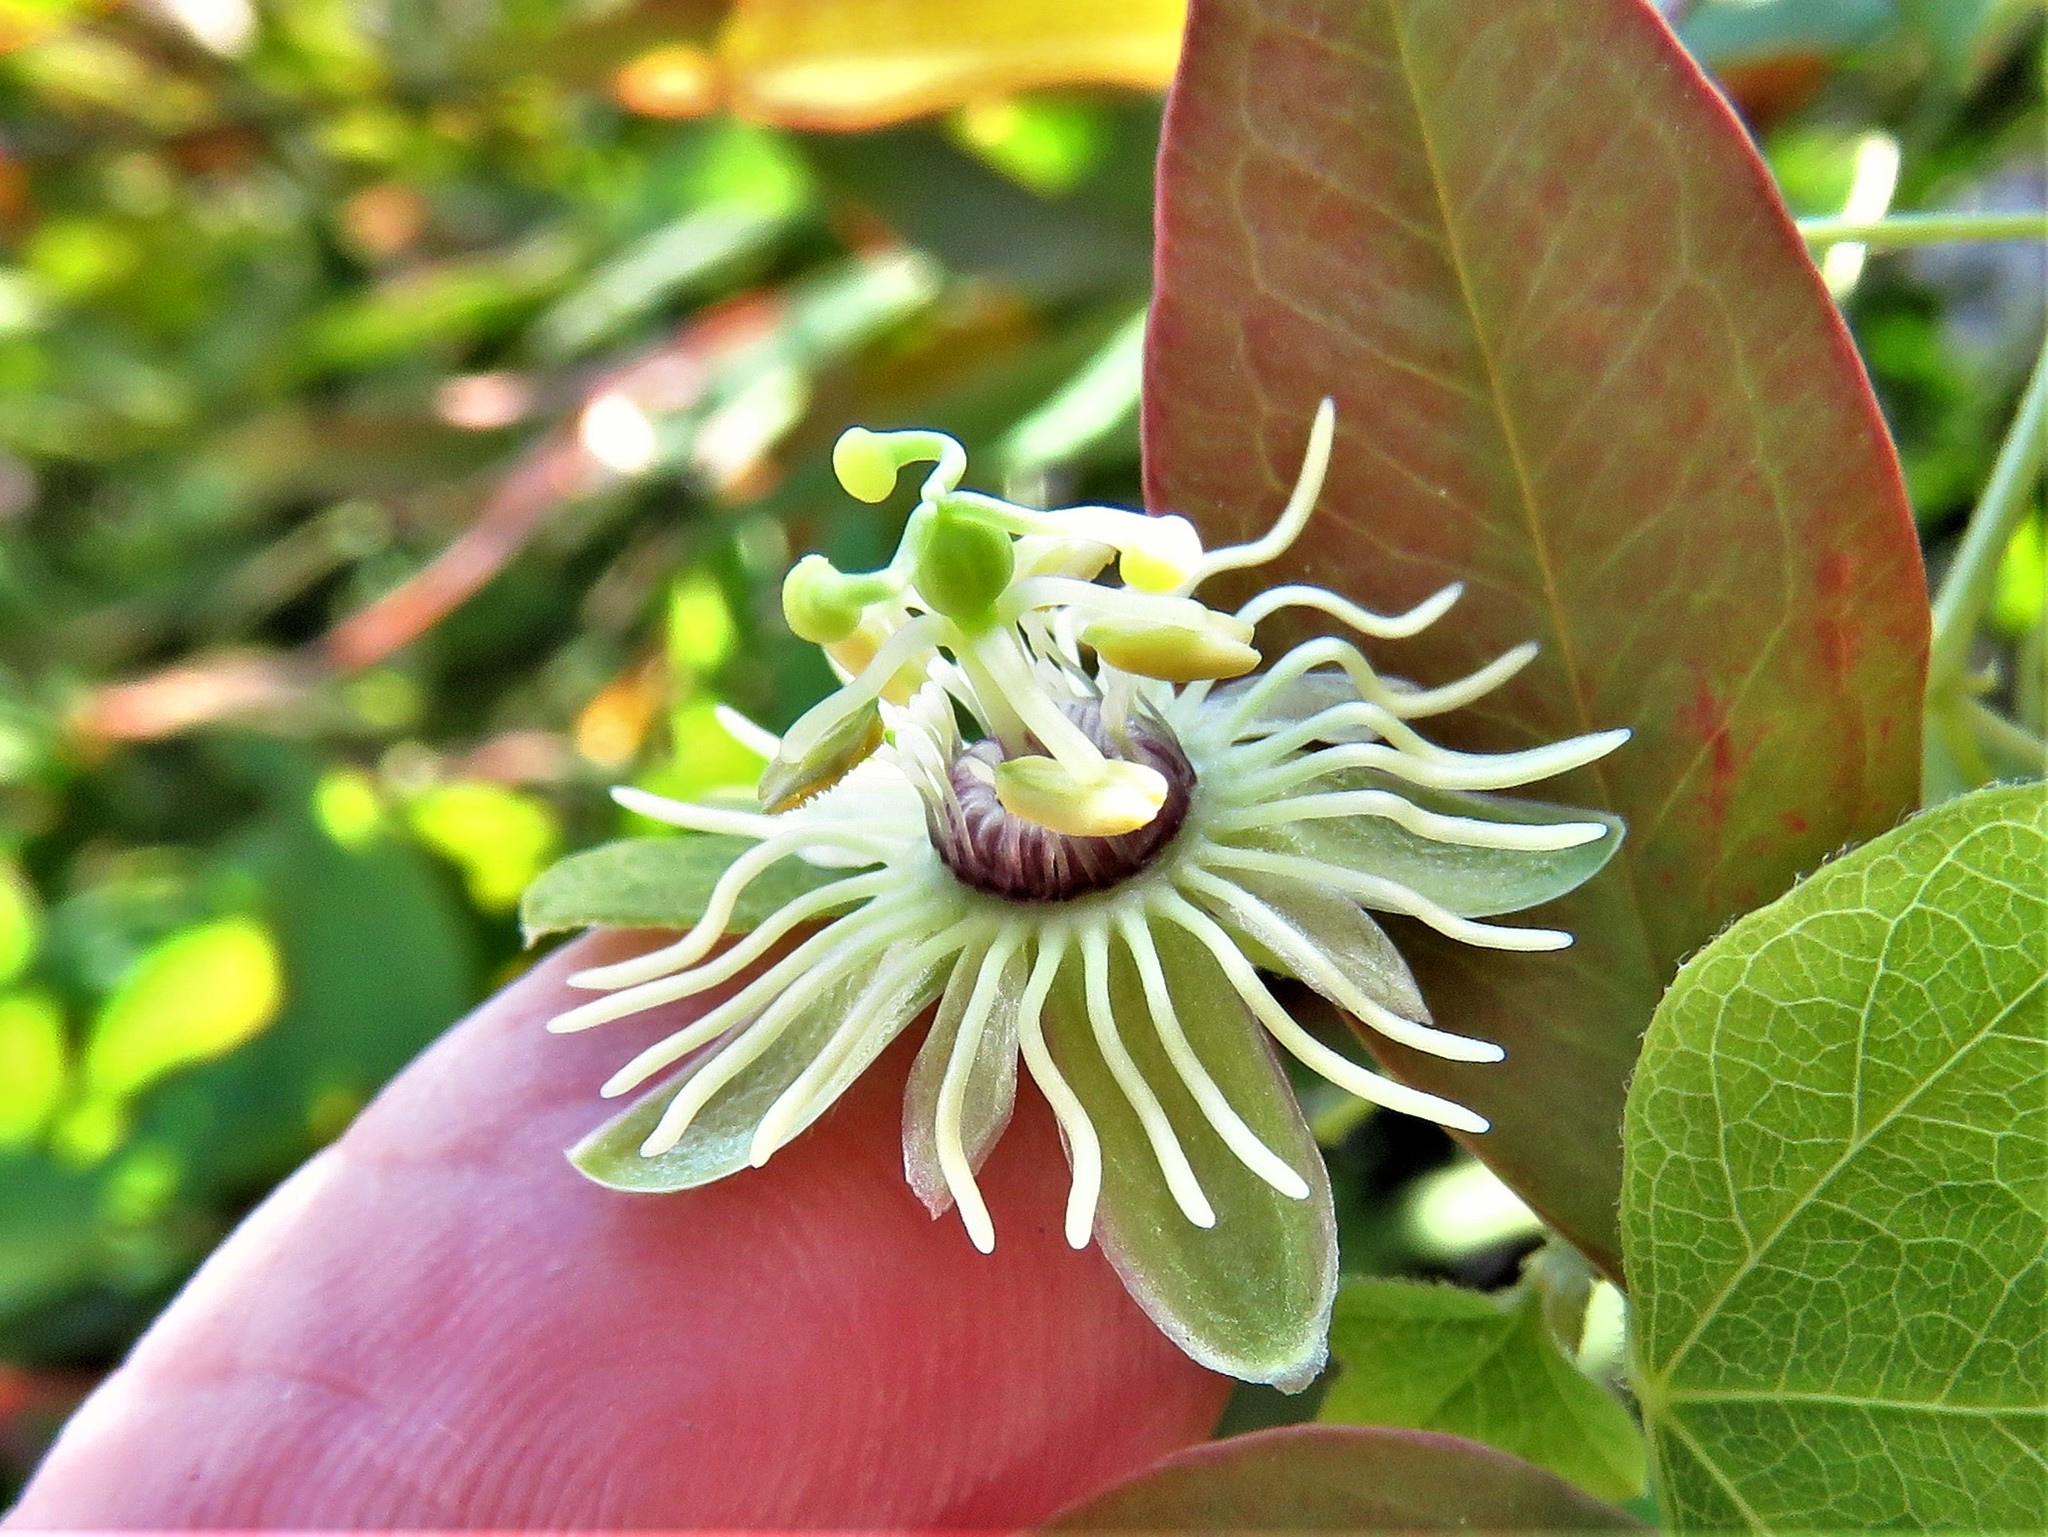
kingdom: Plantae
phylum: Tracheophyta
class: Magnoliopsida
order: Malpighiales
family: Passifloraceae
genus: Passiflora
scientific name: Passiflora lutea
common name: Yellow passionflower
